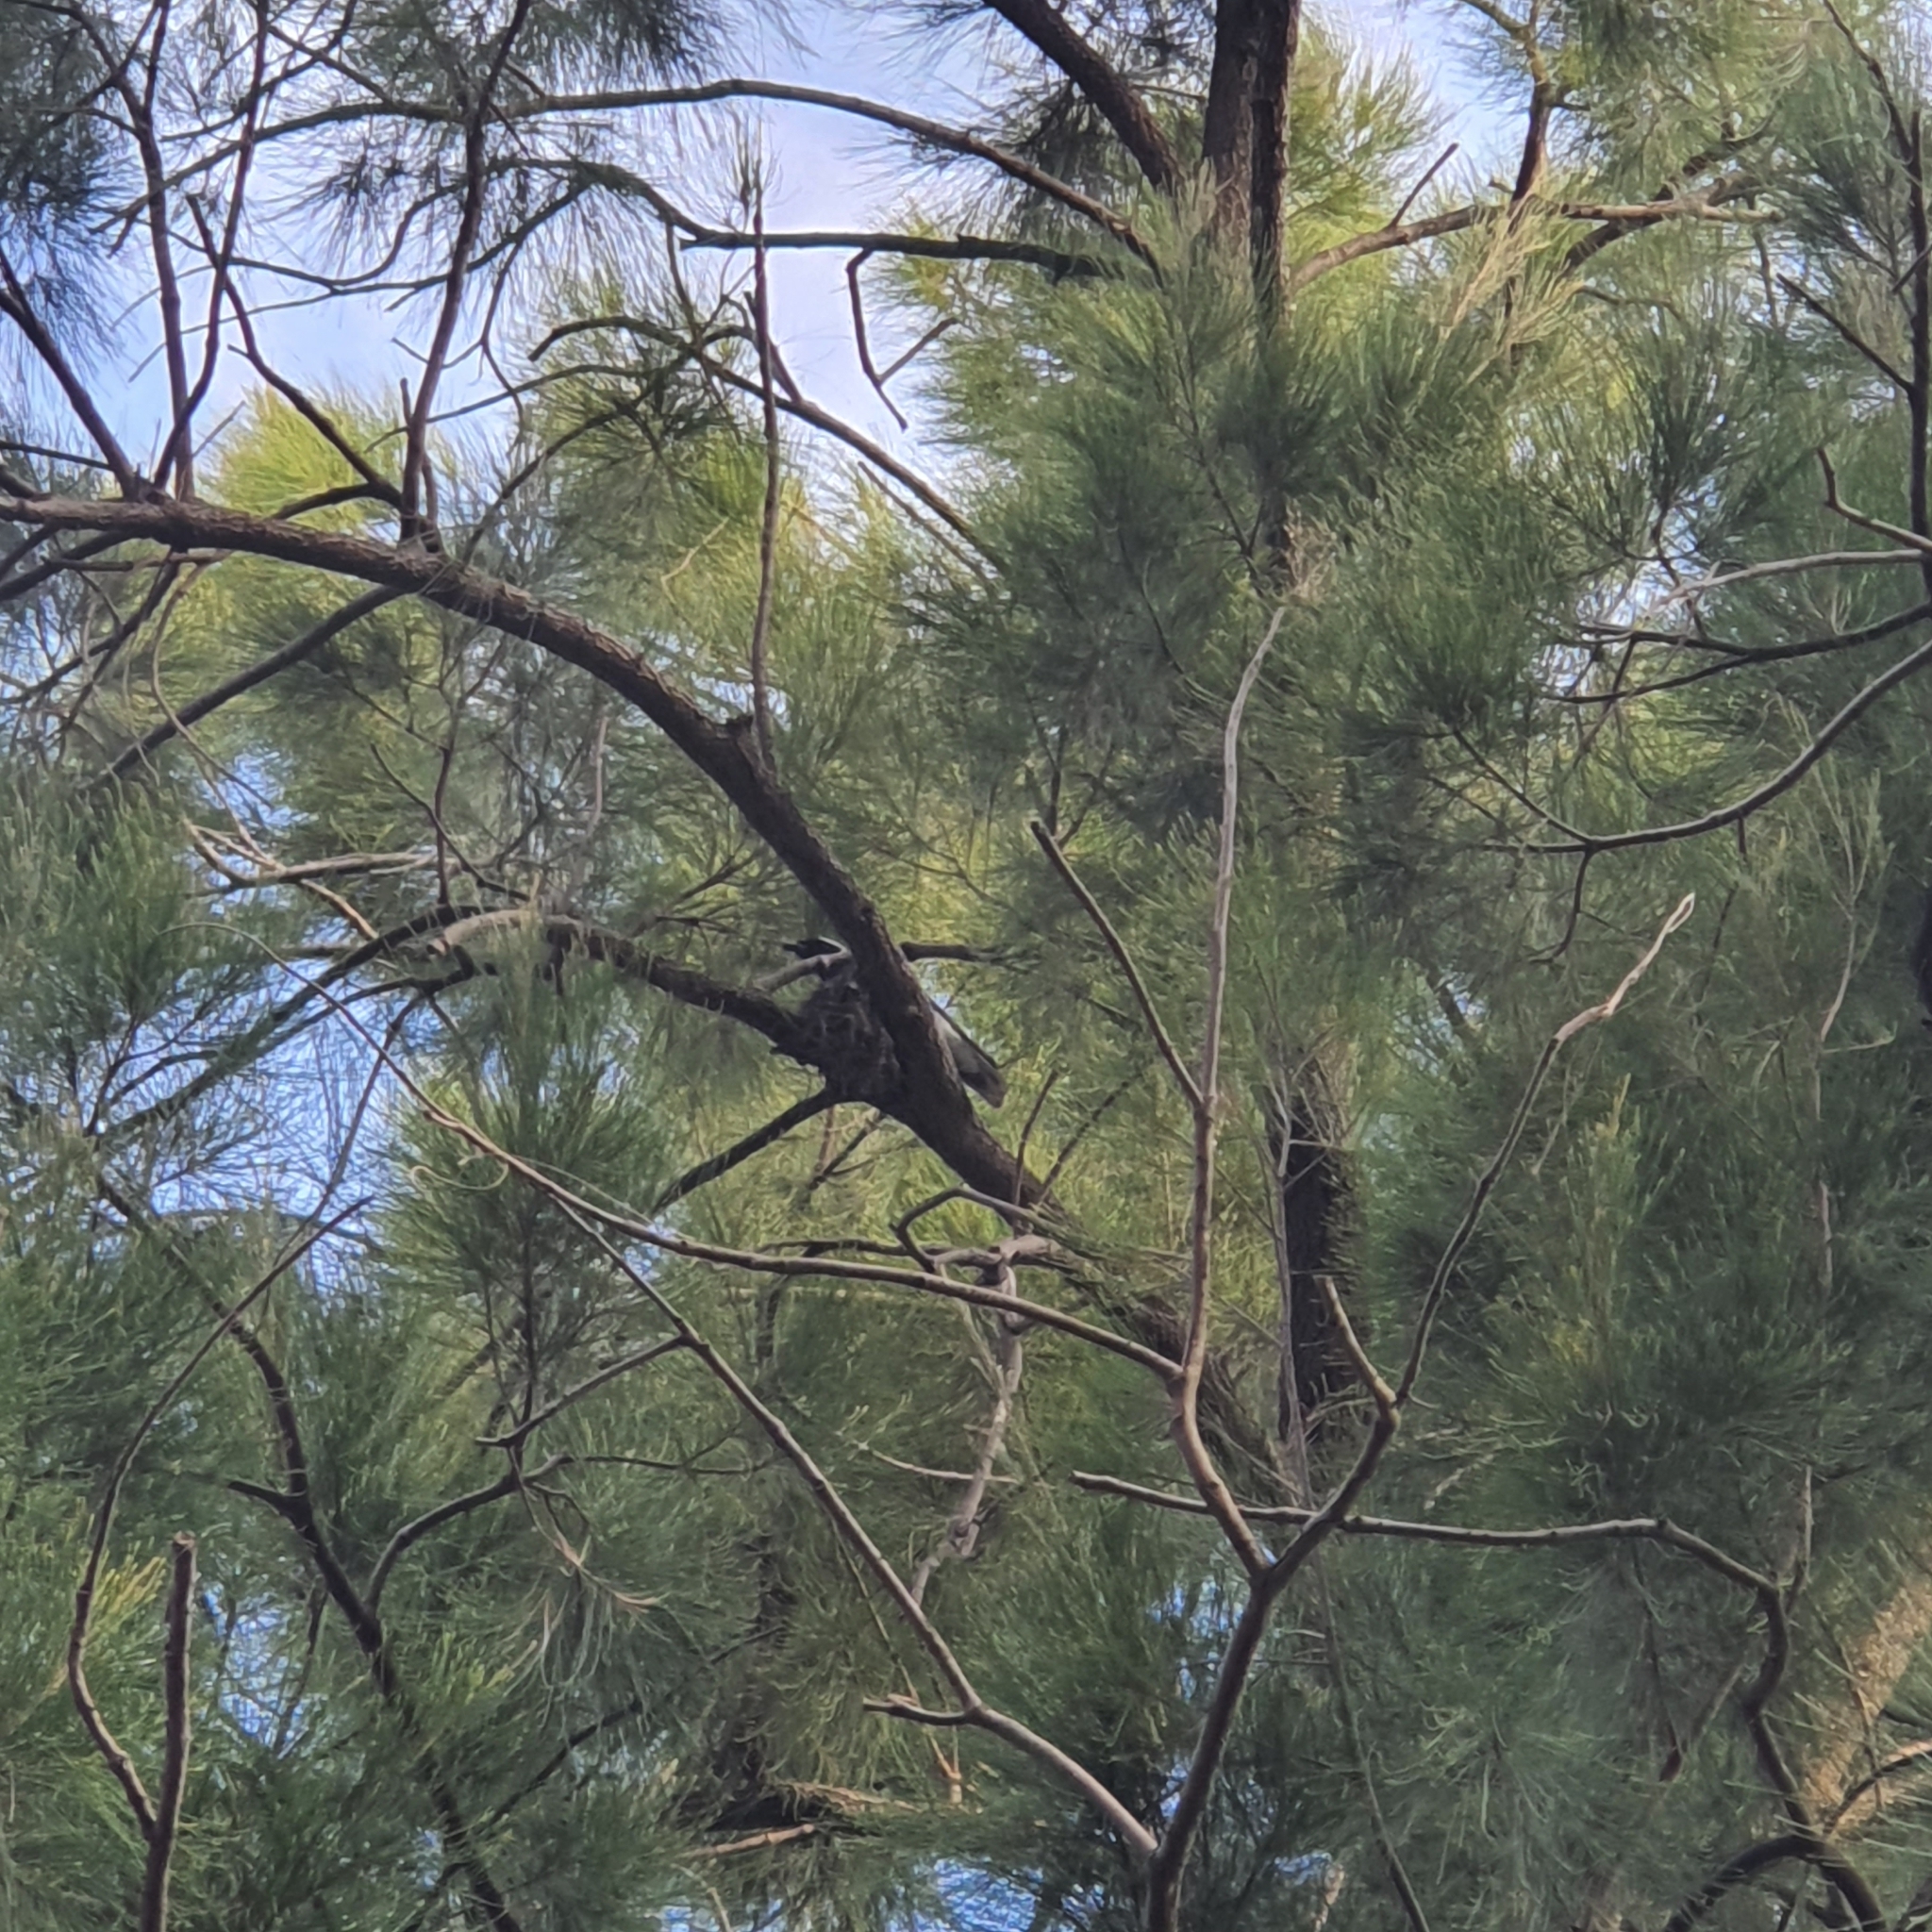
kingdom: Animalia
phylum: Chordata
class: Aves
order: Passeriformes
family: Campephagidae
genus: Coracina
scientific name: Coracina novaehollandiae
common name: Black-faced cuckooshrike
